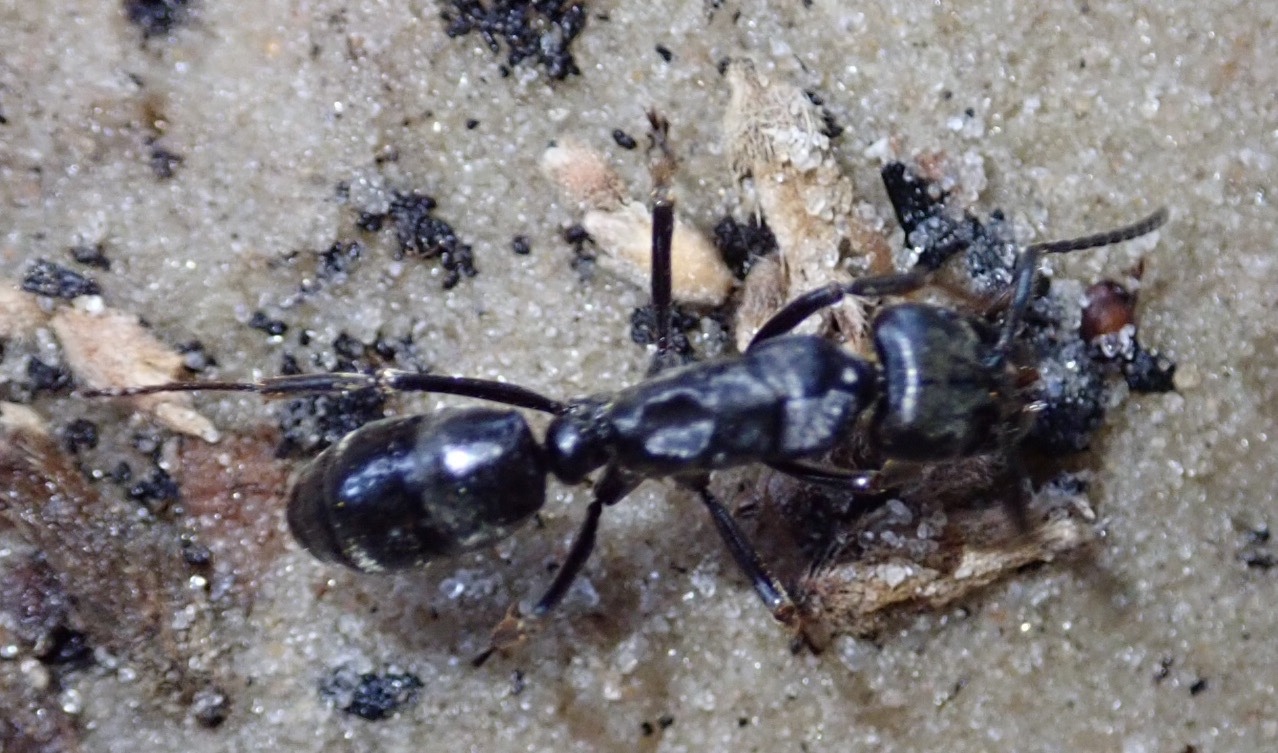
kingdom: Animalia
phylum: Arthropoda
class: Insecta
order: Hymenoptera
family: Formicidae
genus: Paltothyreus
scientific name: Paltothyreus tarsatus
